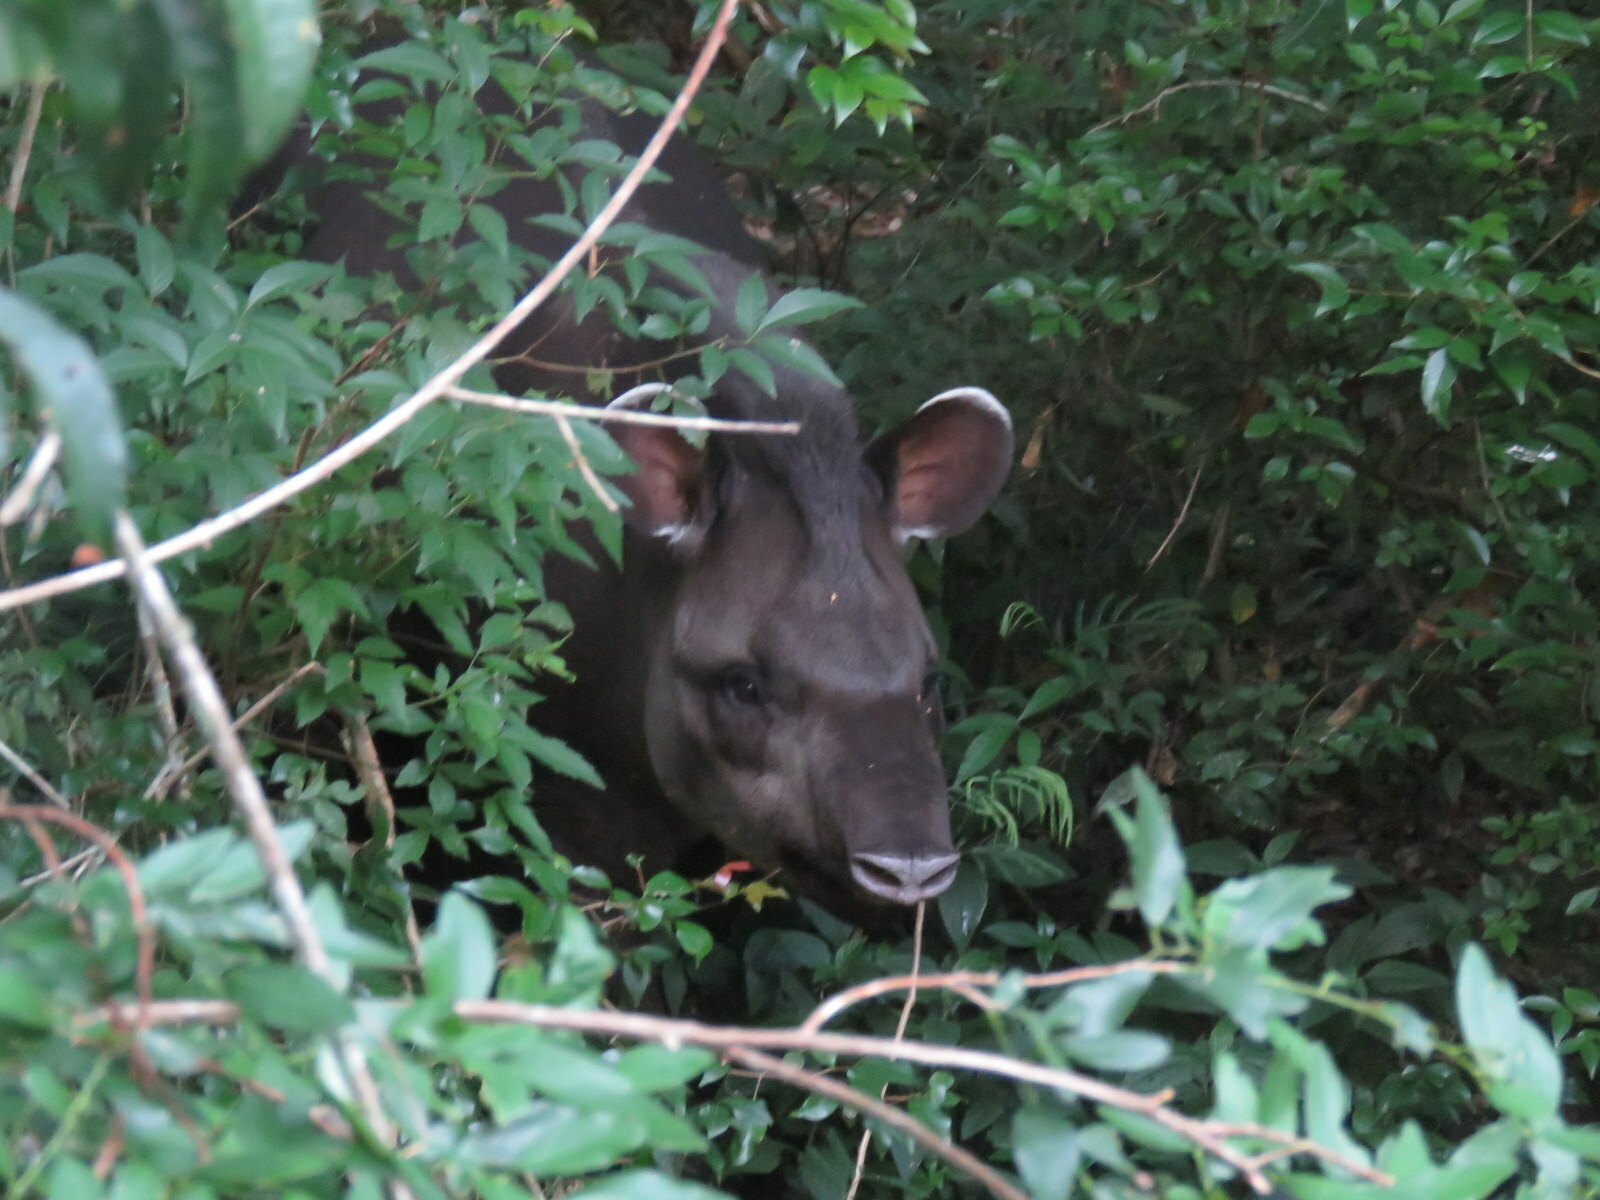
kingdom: Animalia
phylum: Chordata
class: Mammalia
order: Perissodactyla
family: Tapiridae
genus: Tapirus
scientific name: Tapirus terrestris
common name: Brazilian tapir
